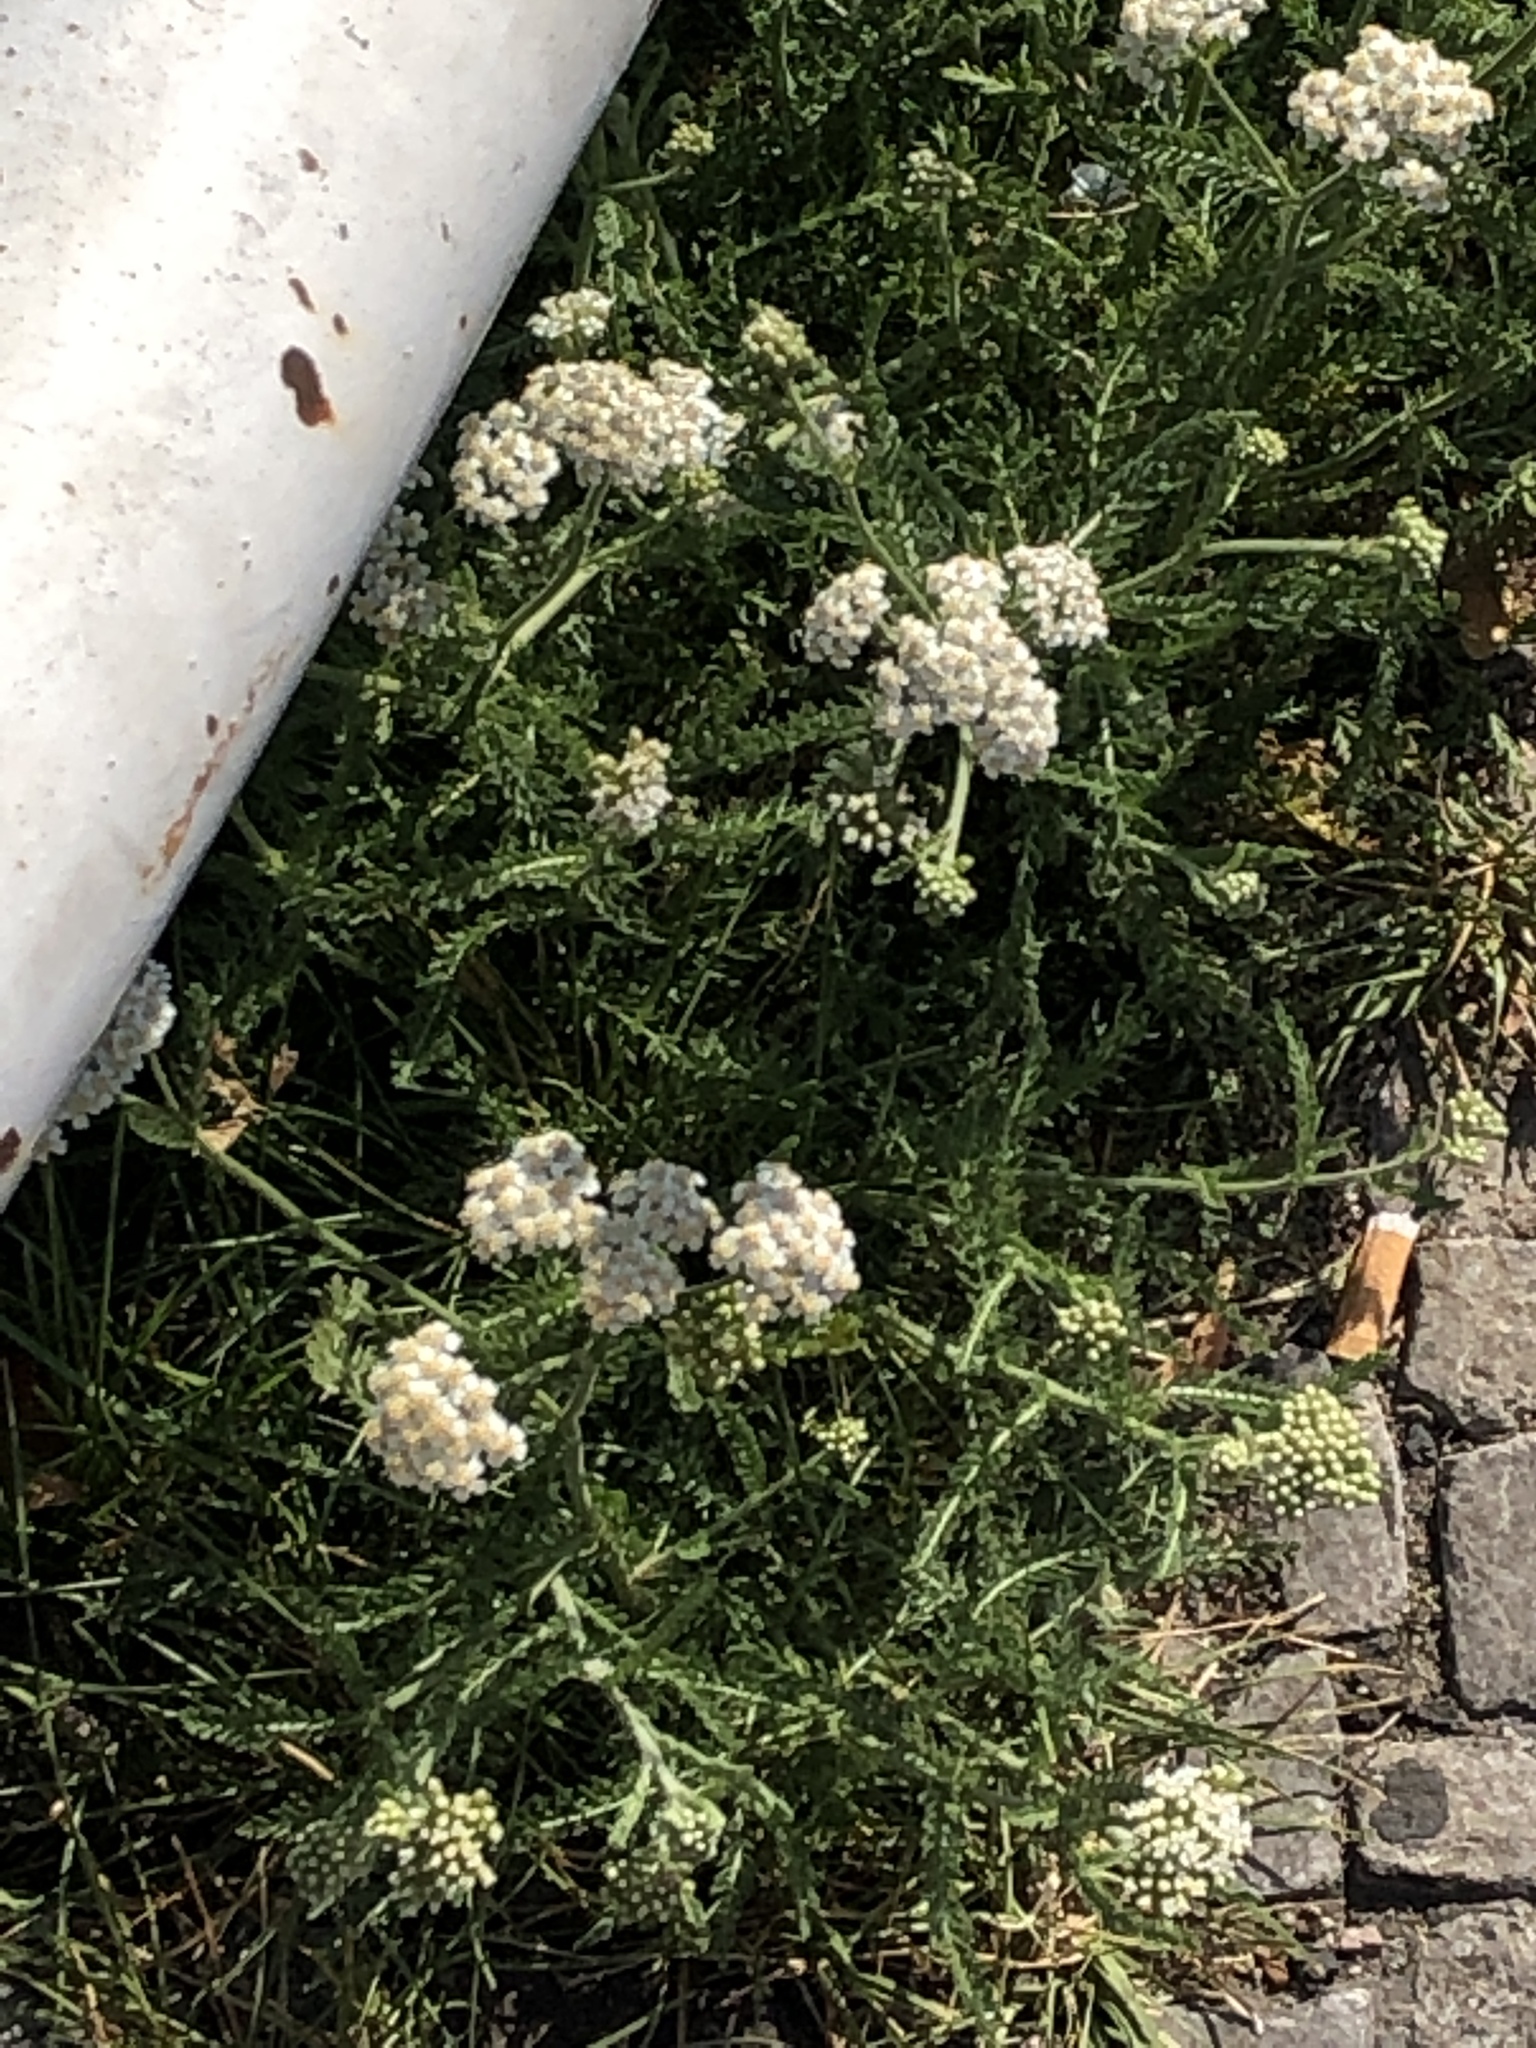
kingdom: Plantae
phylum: Tracheophyta
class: Magnoliopsida
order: Asterales
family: Asteraceae
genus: Achillea
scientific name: Achillea millefolium
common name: Yarrow
